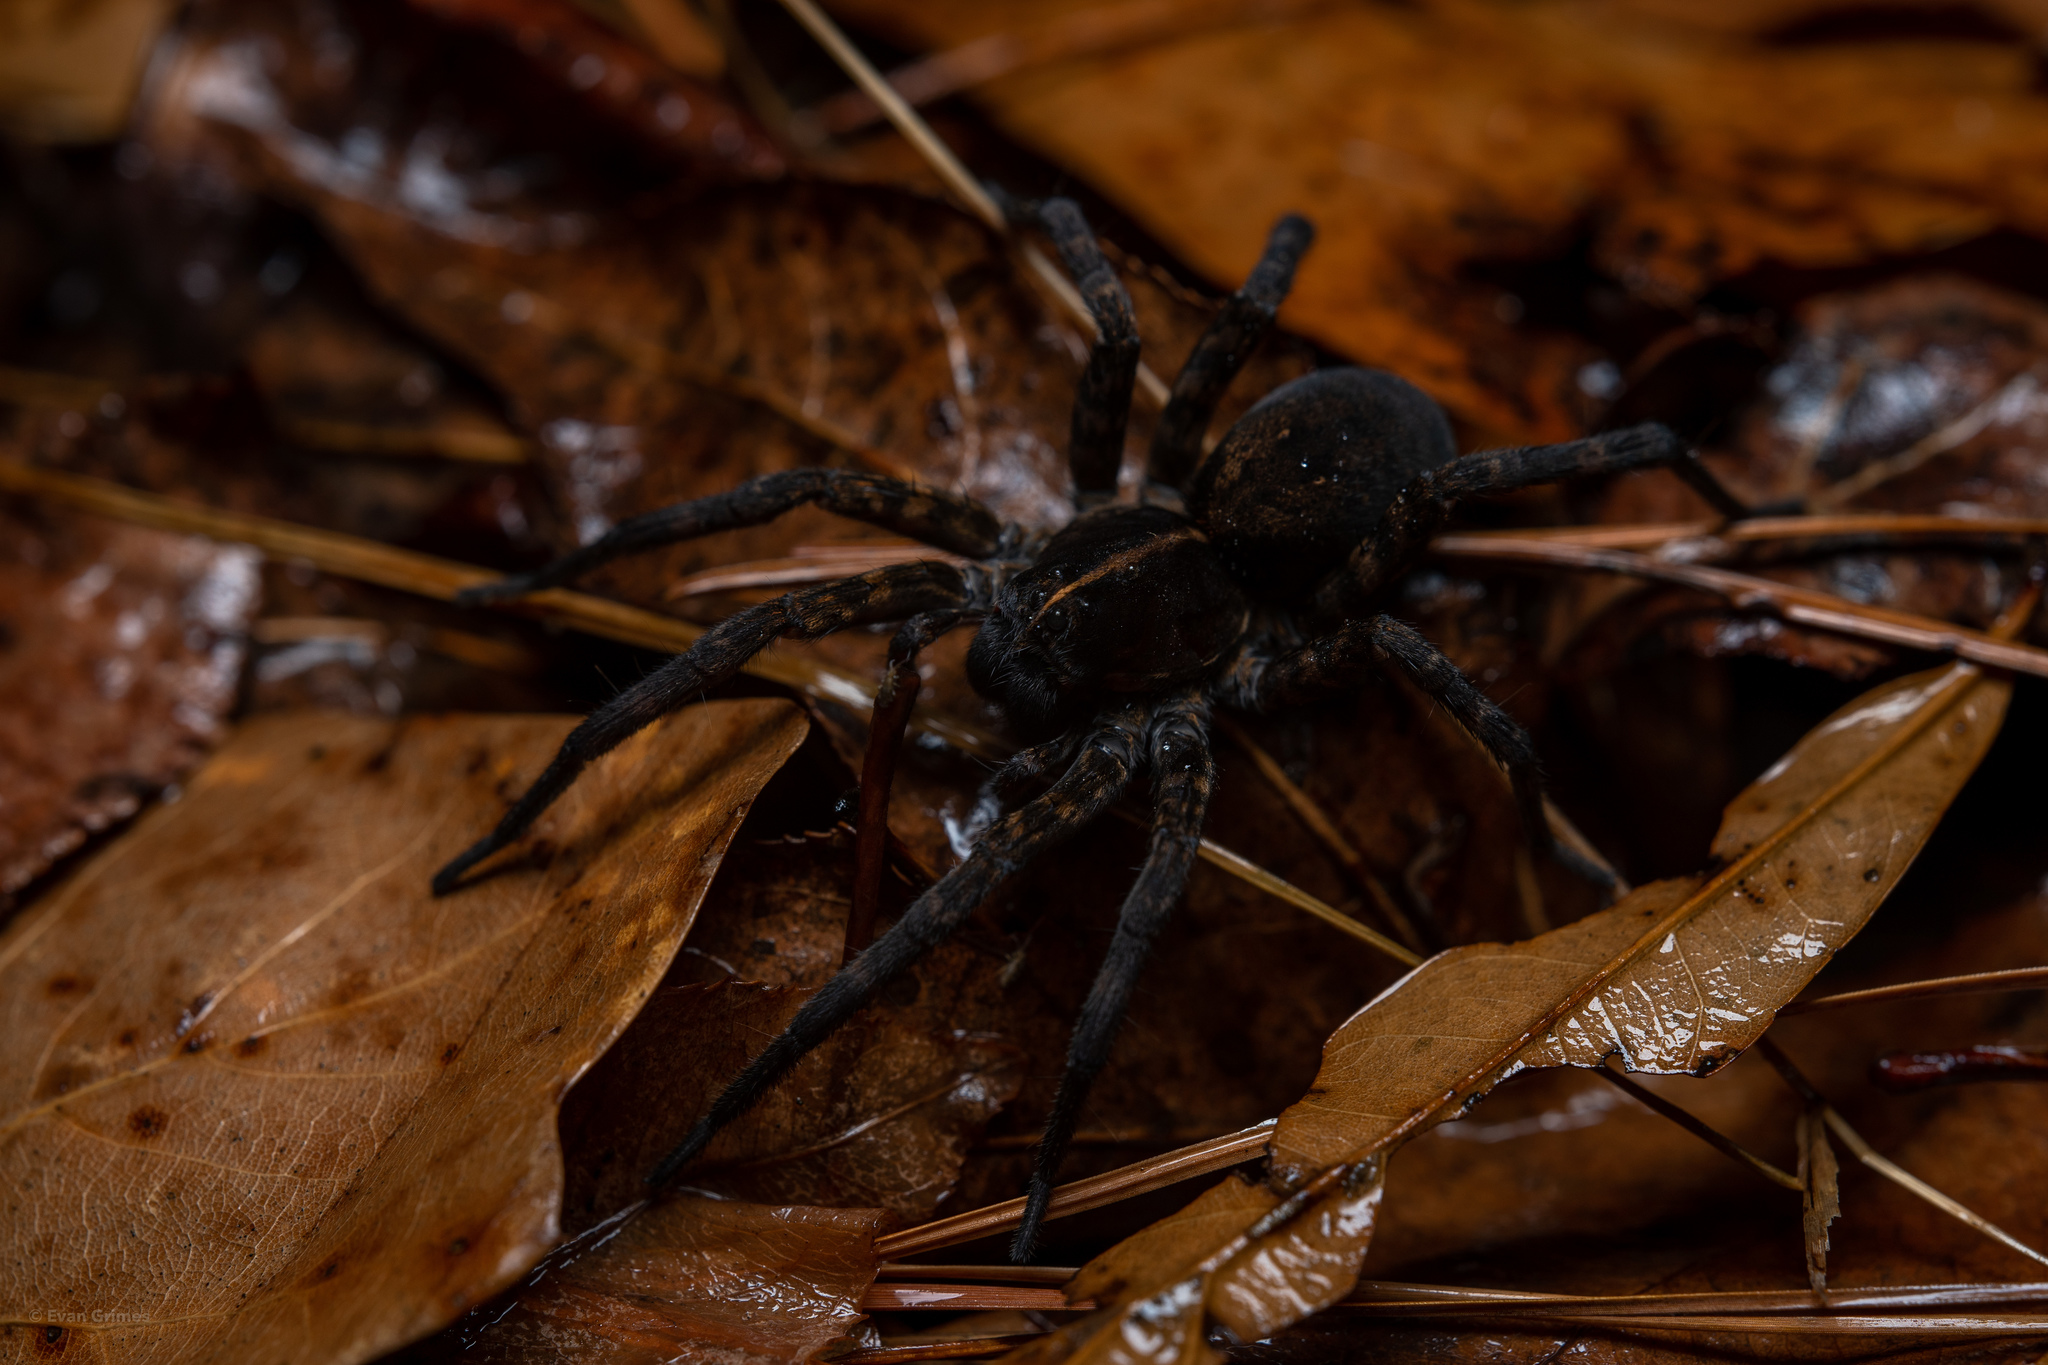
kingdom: Animalia
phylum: Arthropoda
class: Arachnida
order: Araneae
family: Lycosidae
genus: Tigrosa
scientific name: Tigrosa georgicola
